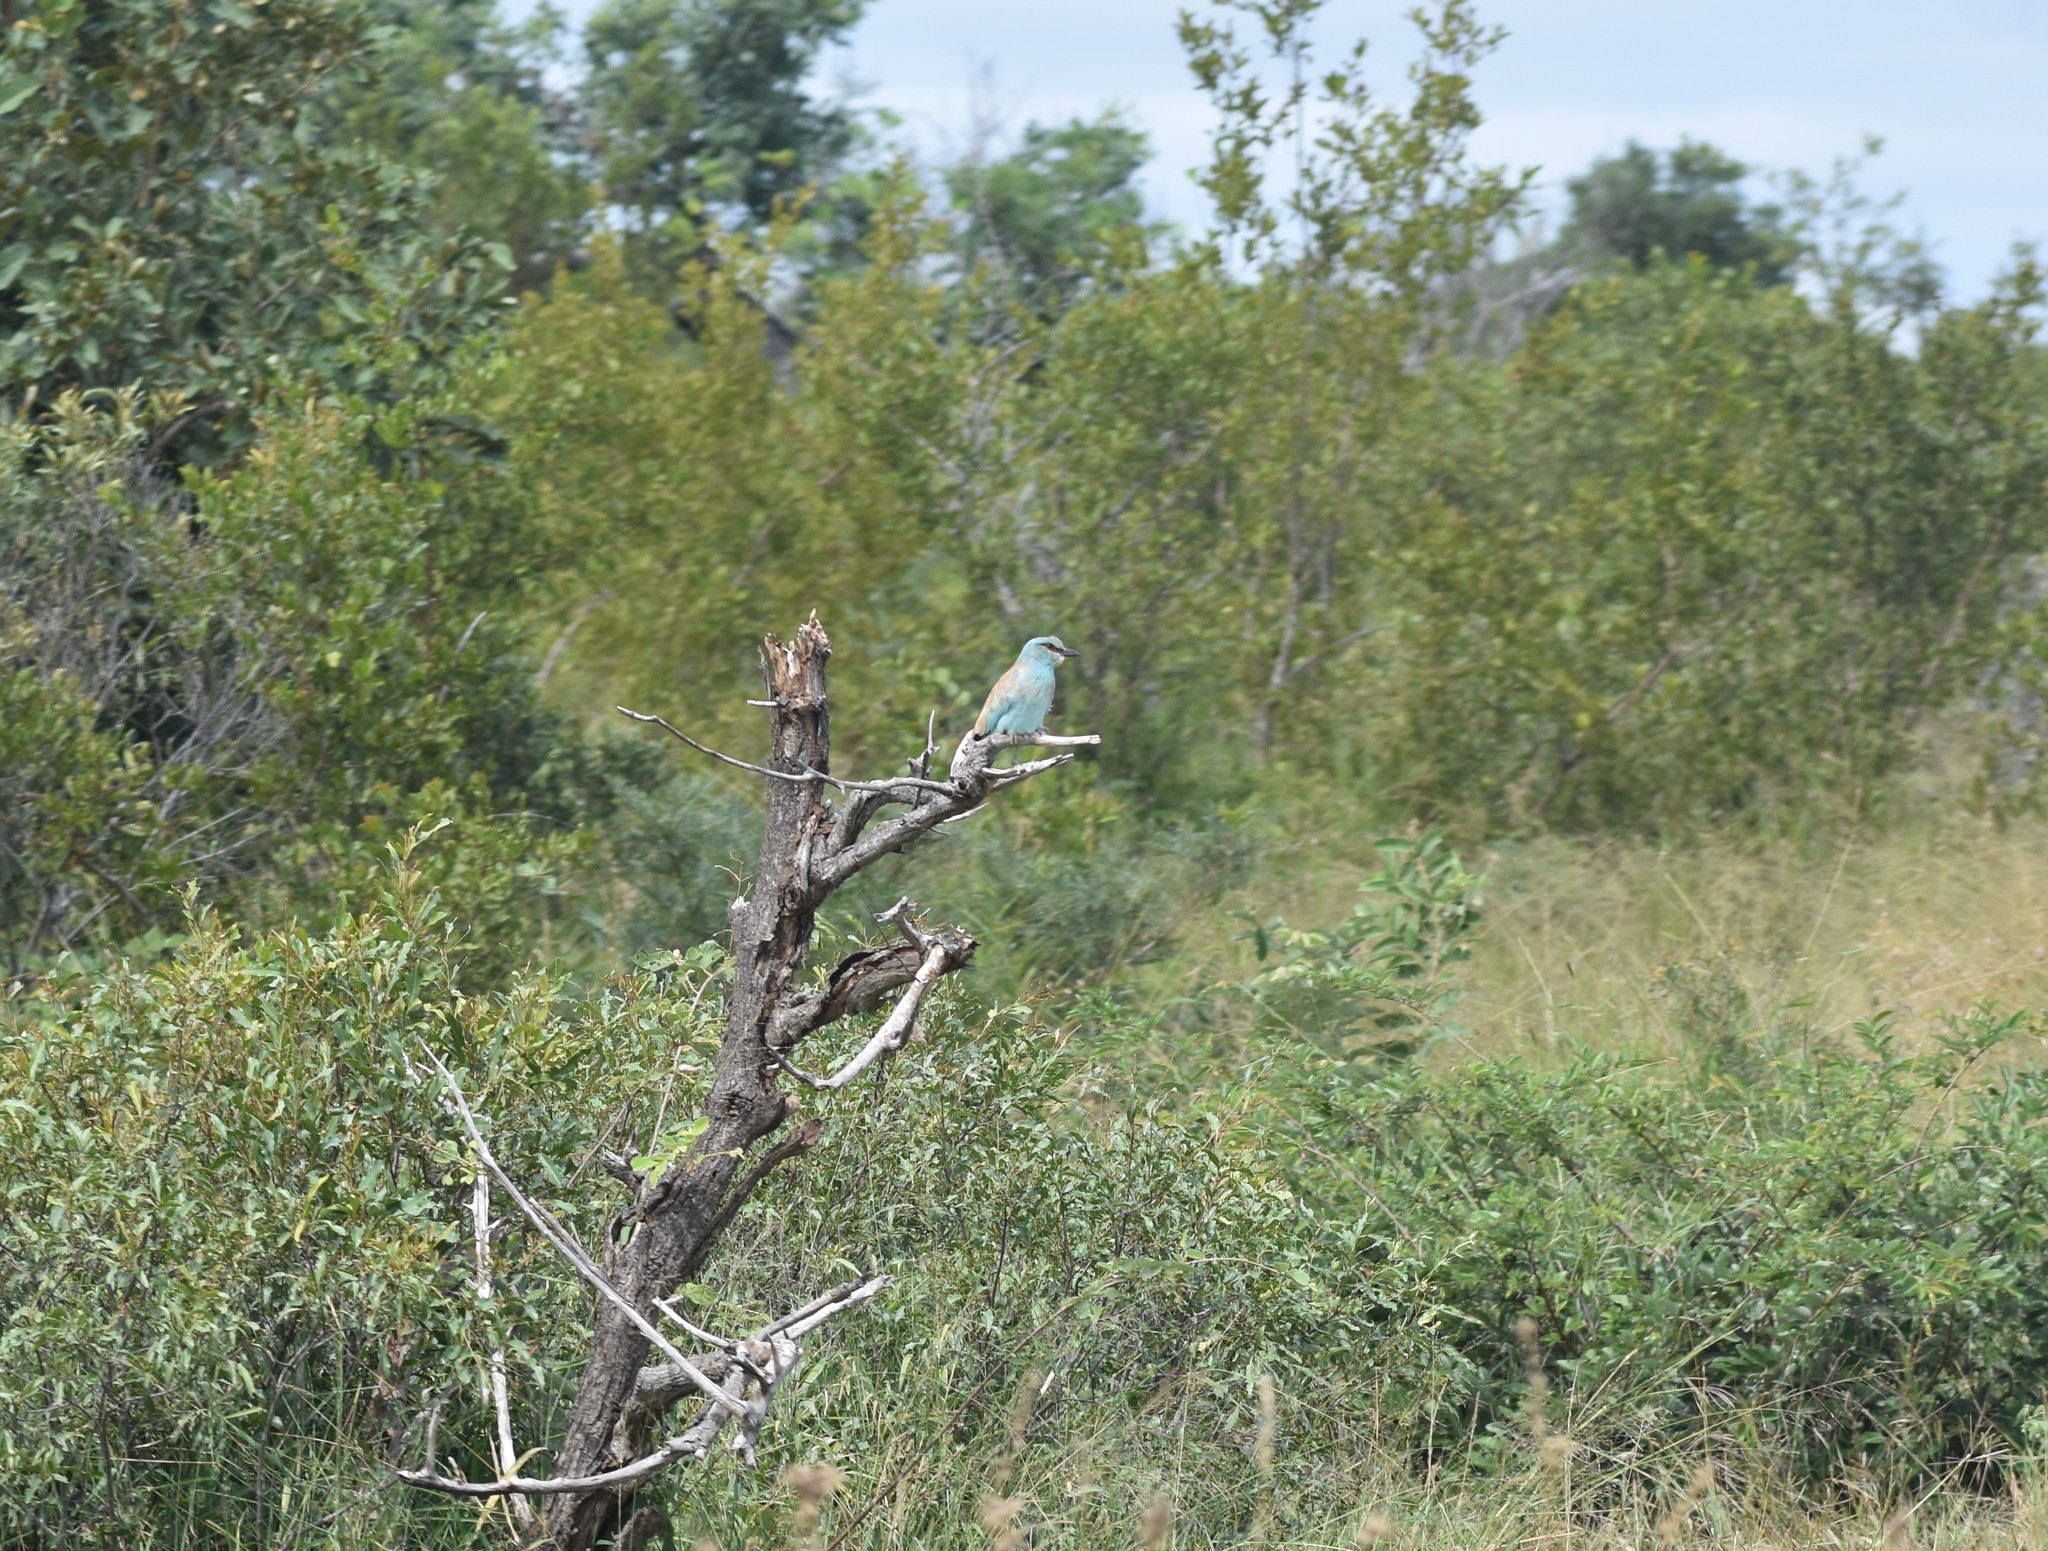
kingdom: Animalia
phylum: Chordata
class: Aves
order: Coraciiformes
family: Coraciidae
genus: Coracias
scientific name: Coracias garrulus
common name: European roller
